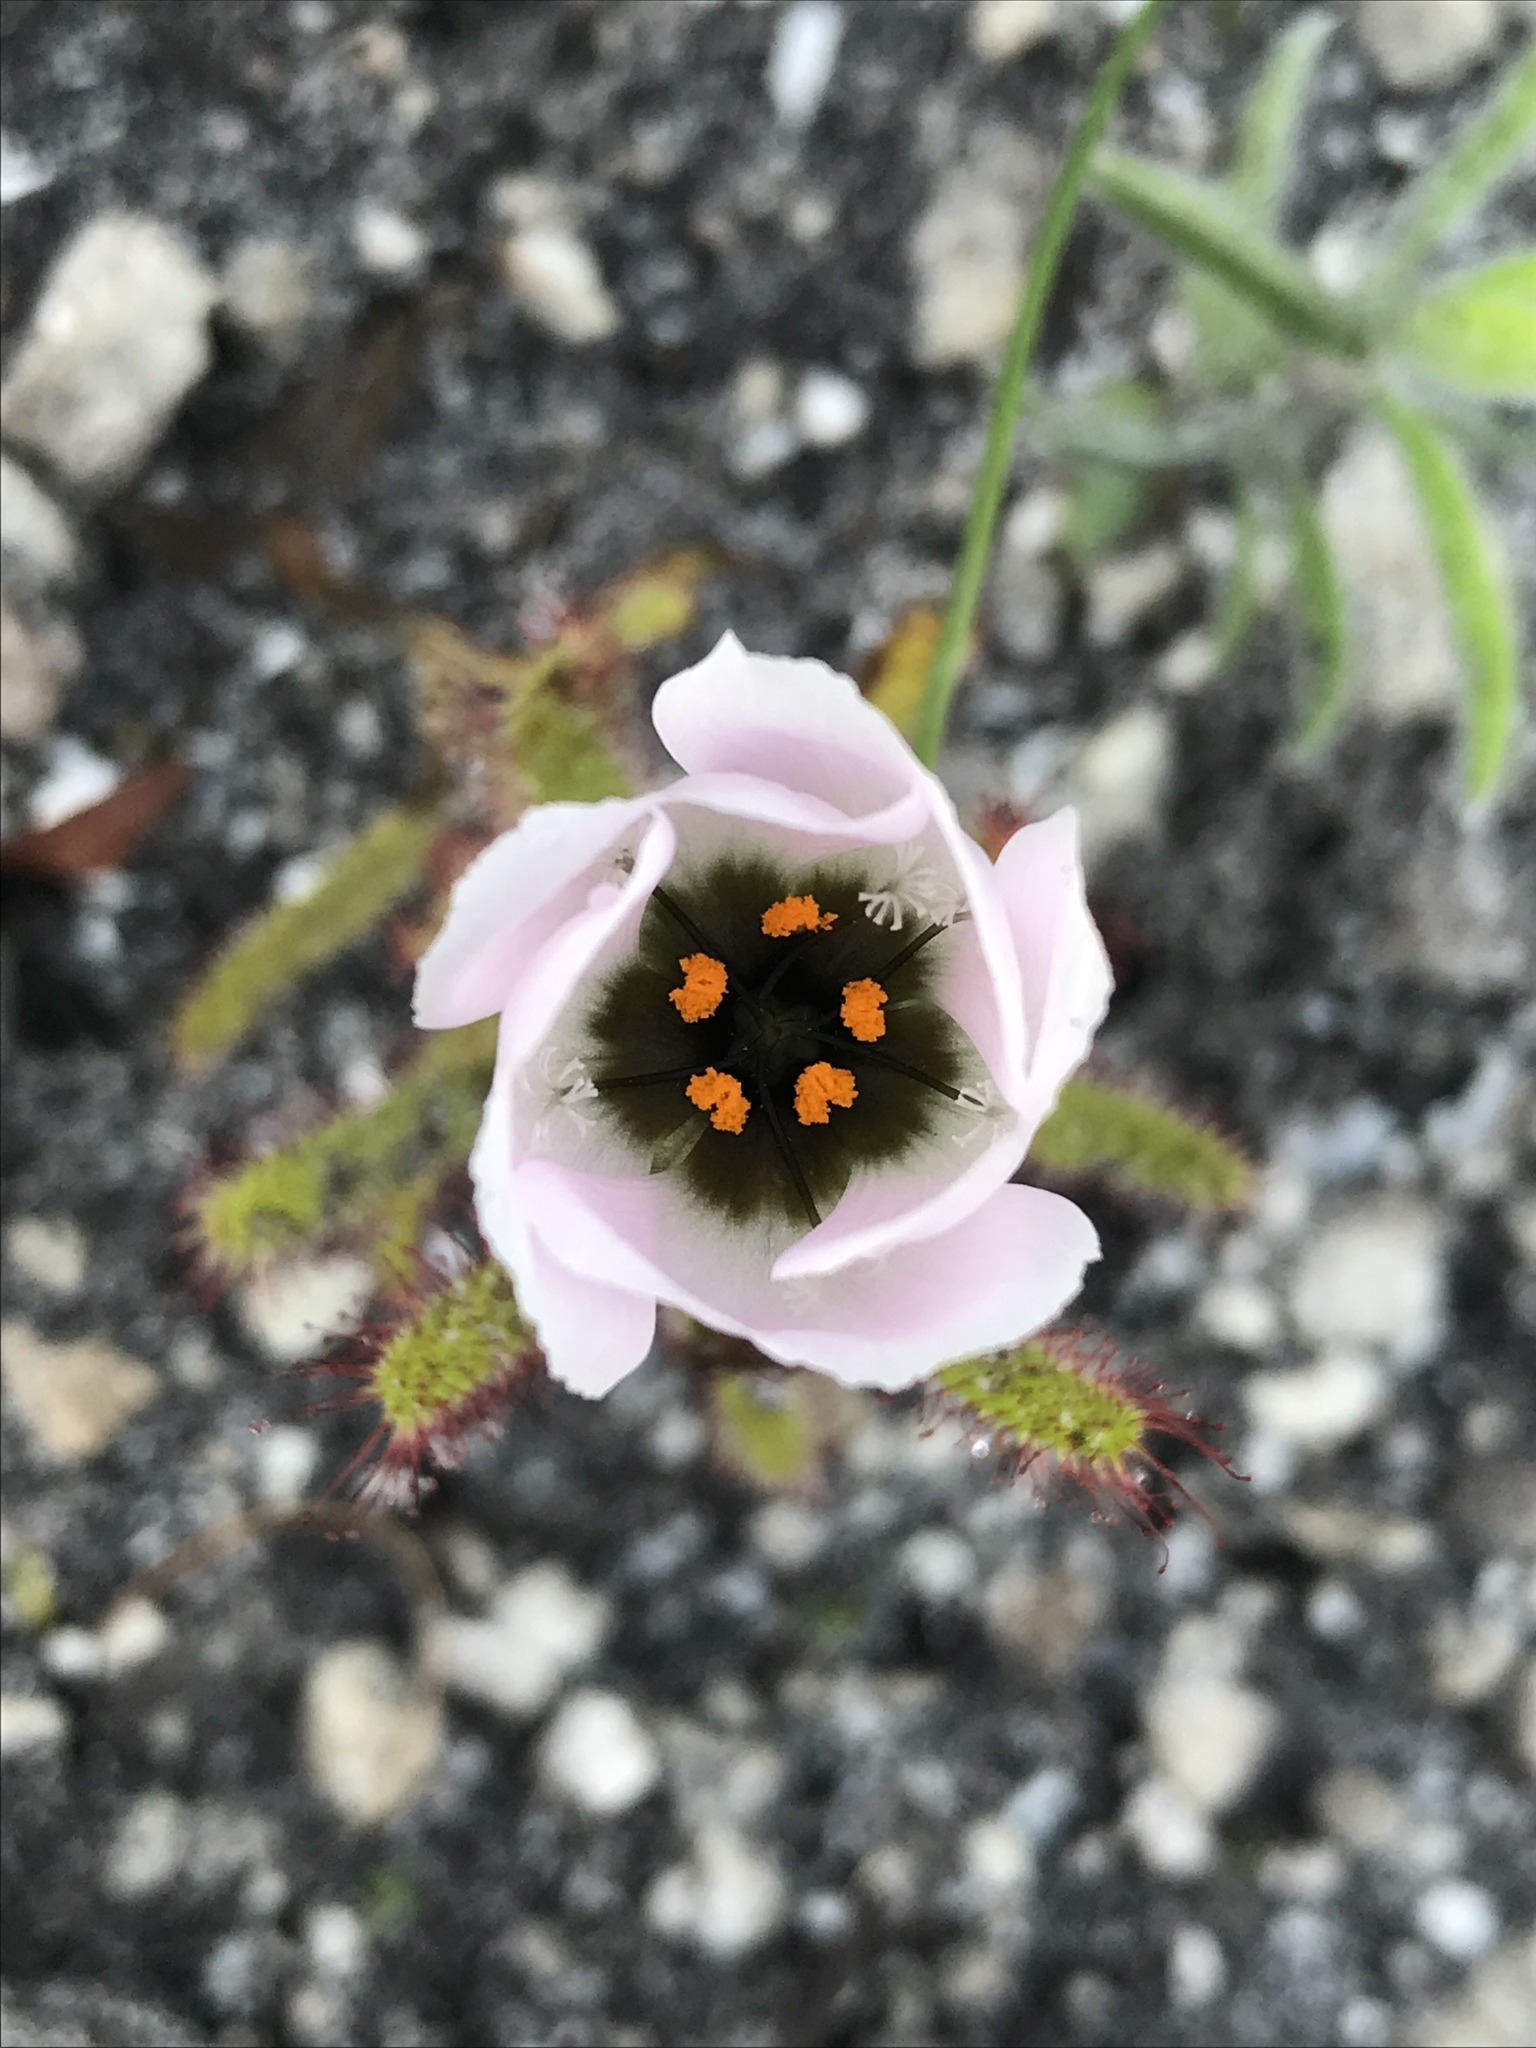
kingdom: Plantae
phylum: Tracheophyta
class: Magnoliopsida
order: Caryophyllales
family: Droseraceae
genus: Drosera
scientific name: Drosera cistiflora
